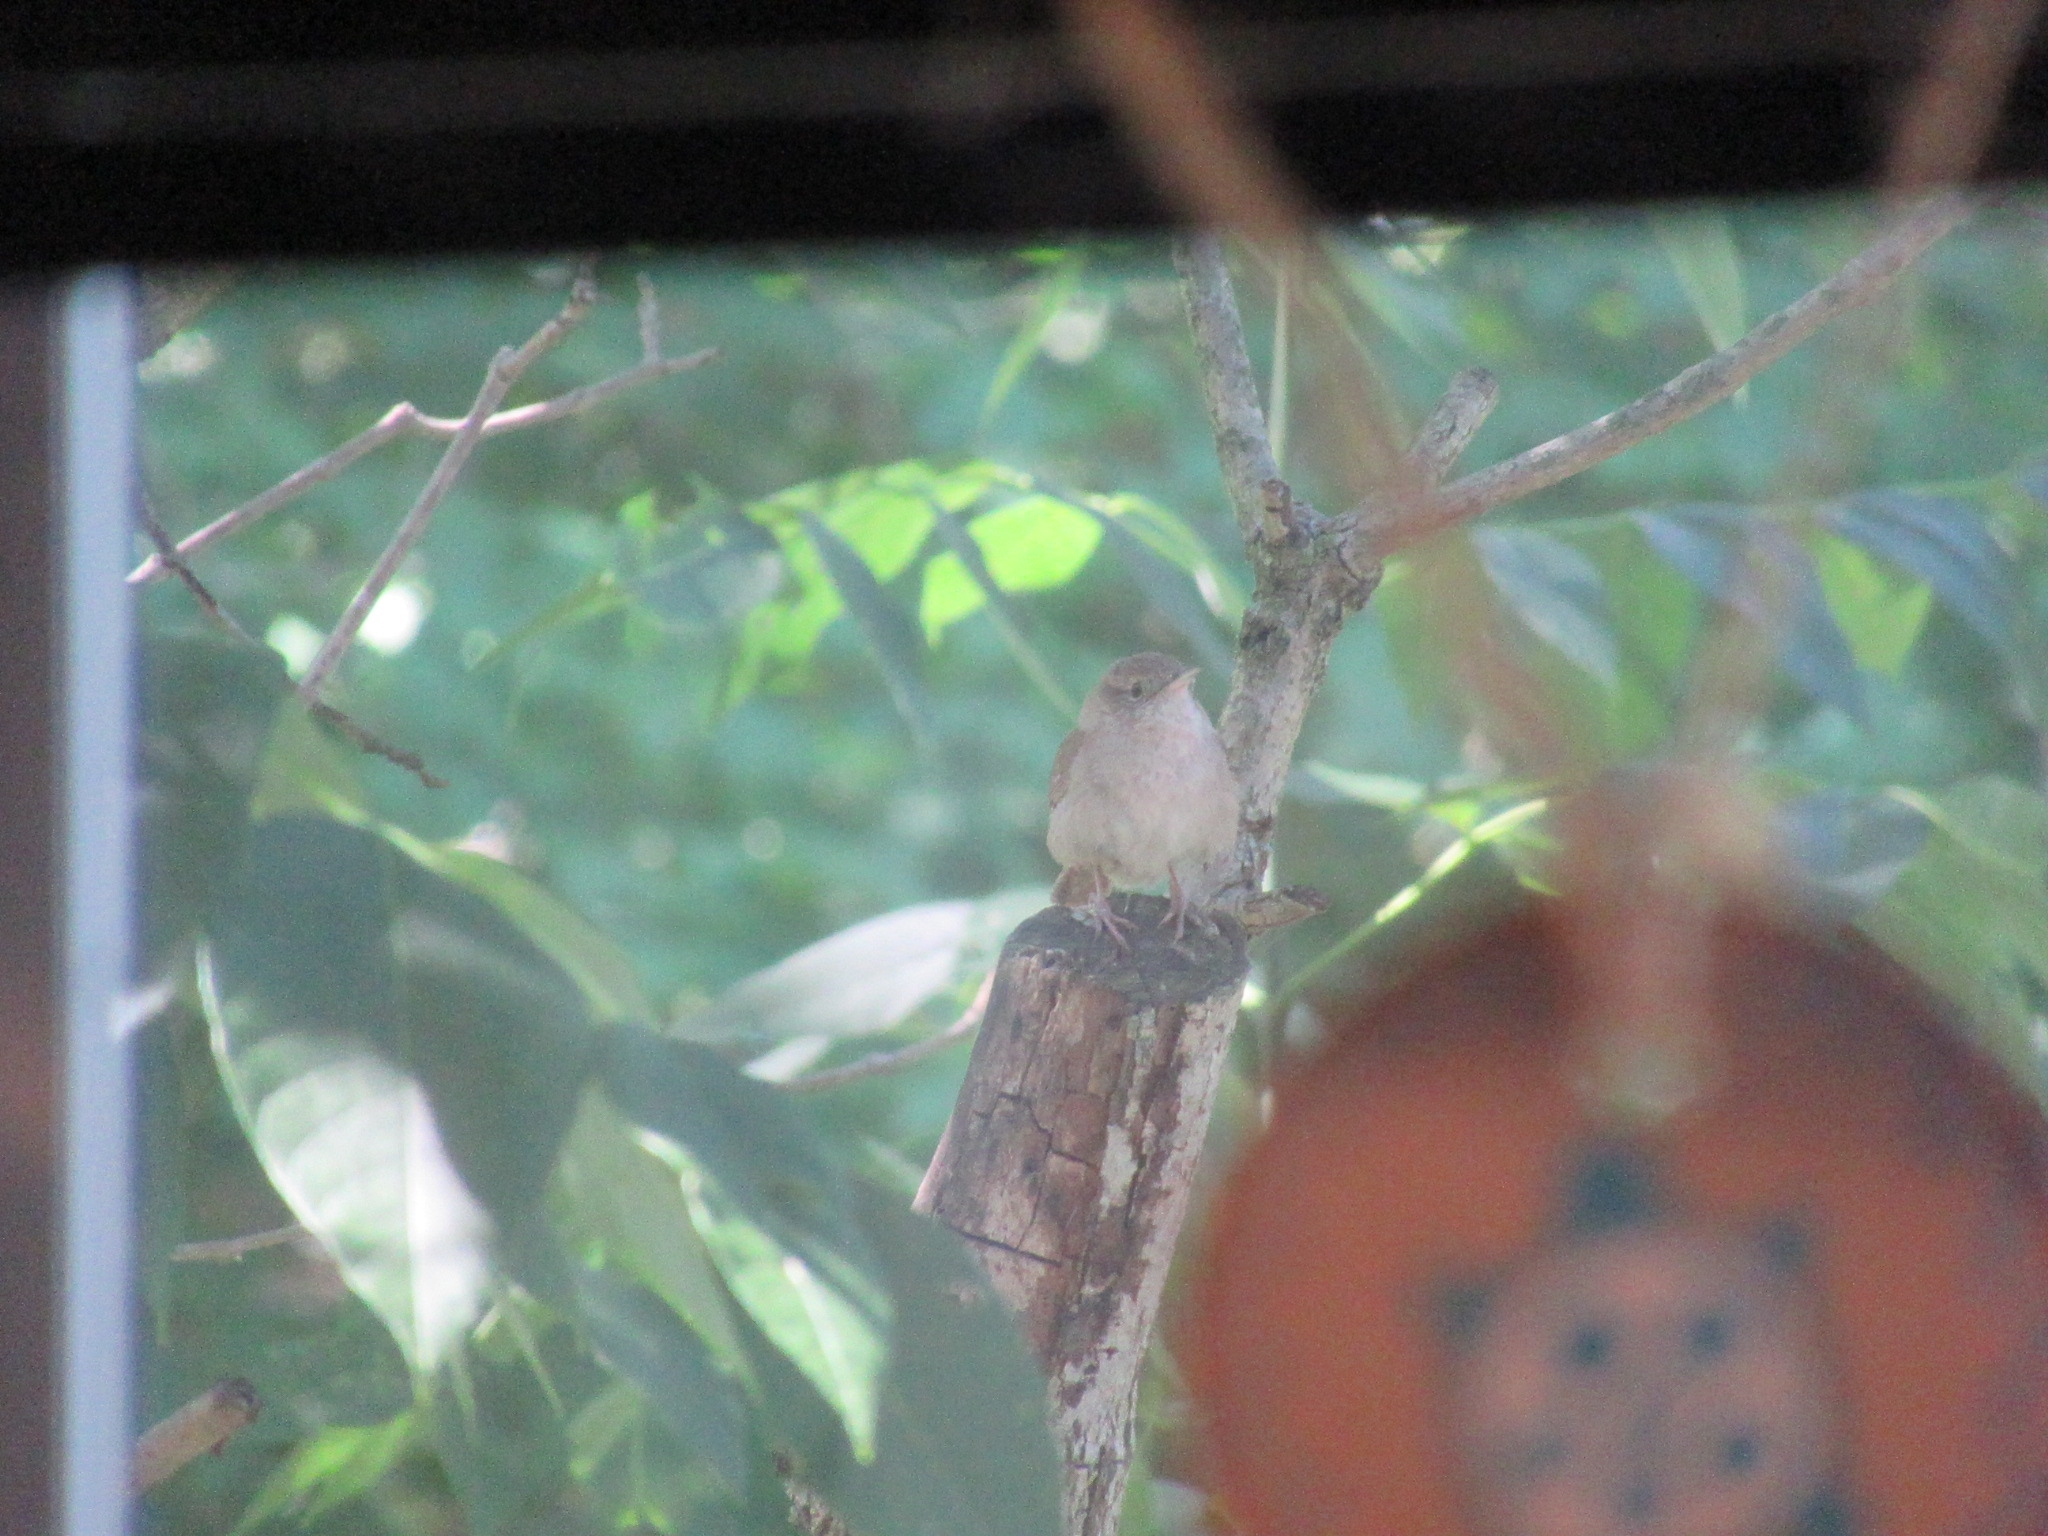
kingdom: Animalia
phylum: Chordata
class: Aves
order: Passeriformes
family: Troglodytidae
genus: Troglodytes
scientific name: Troglodytes aedon
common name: House wren
